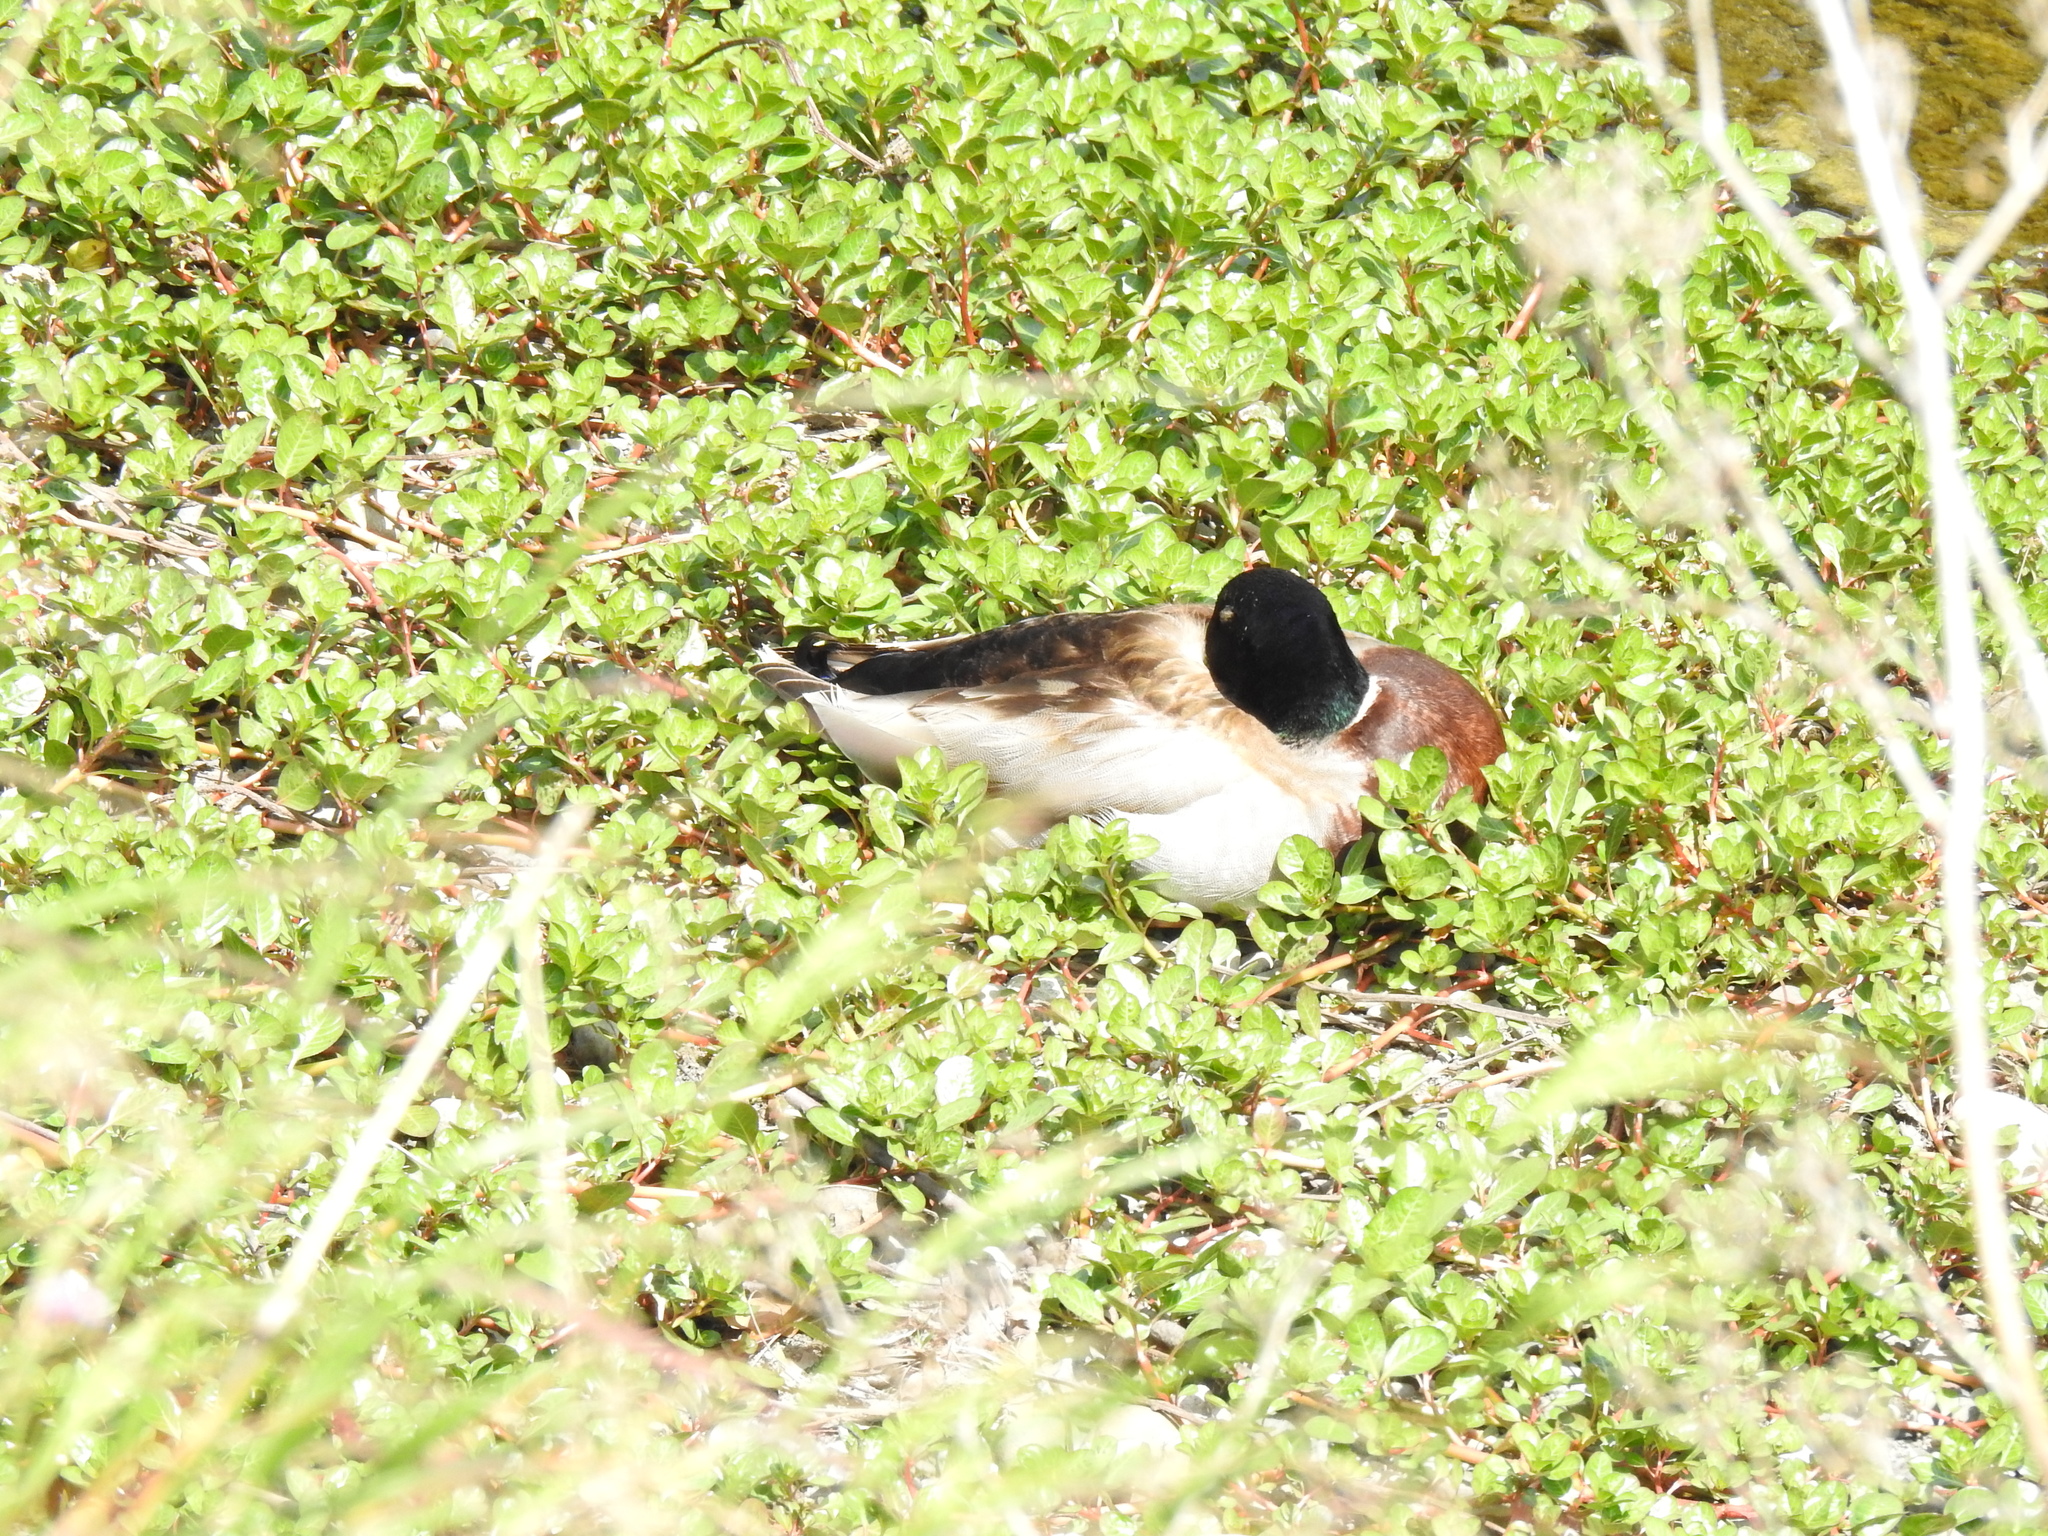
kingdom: Animalia
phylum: Chordata
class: Aves
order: Anseriformes
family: Anatidae
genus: Anas
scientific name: Anas platyrhynchos
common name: Mallard
